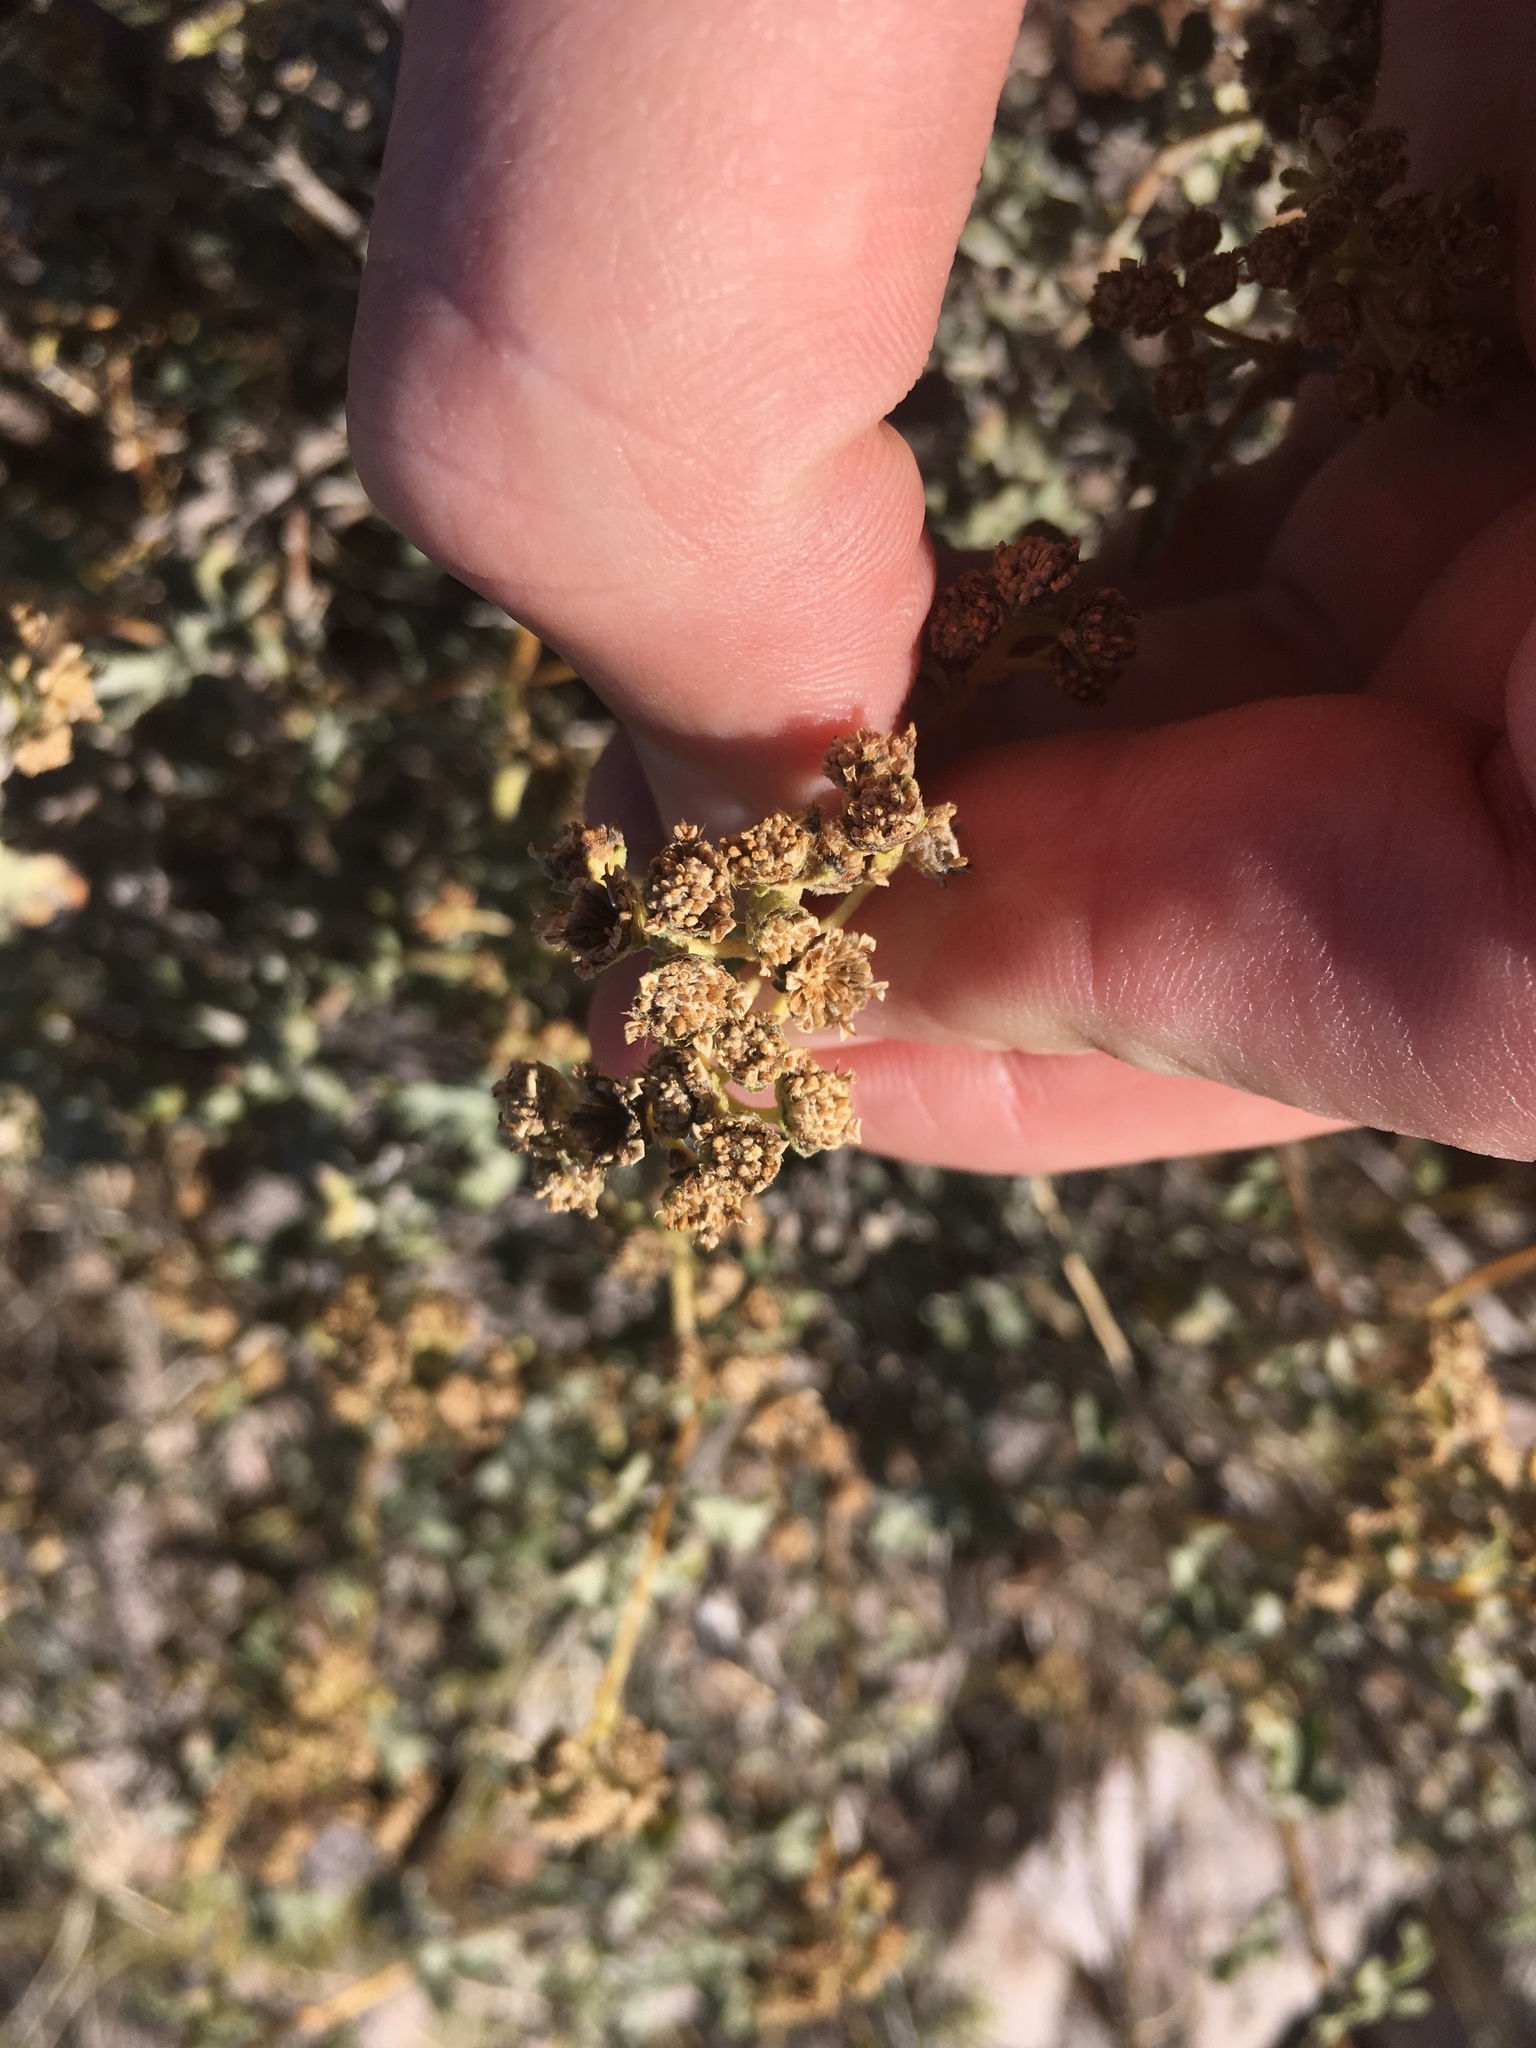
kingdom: Plantae
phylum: Tracheophyta
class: Magnoliopsida
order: Asterales
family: Asteraceae
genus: Parthenium
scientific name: Parthenium incanum
